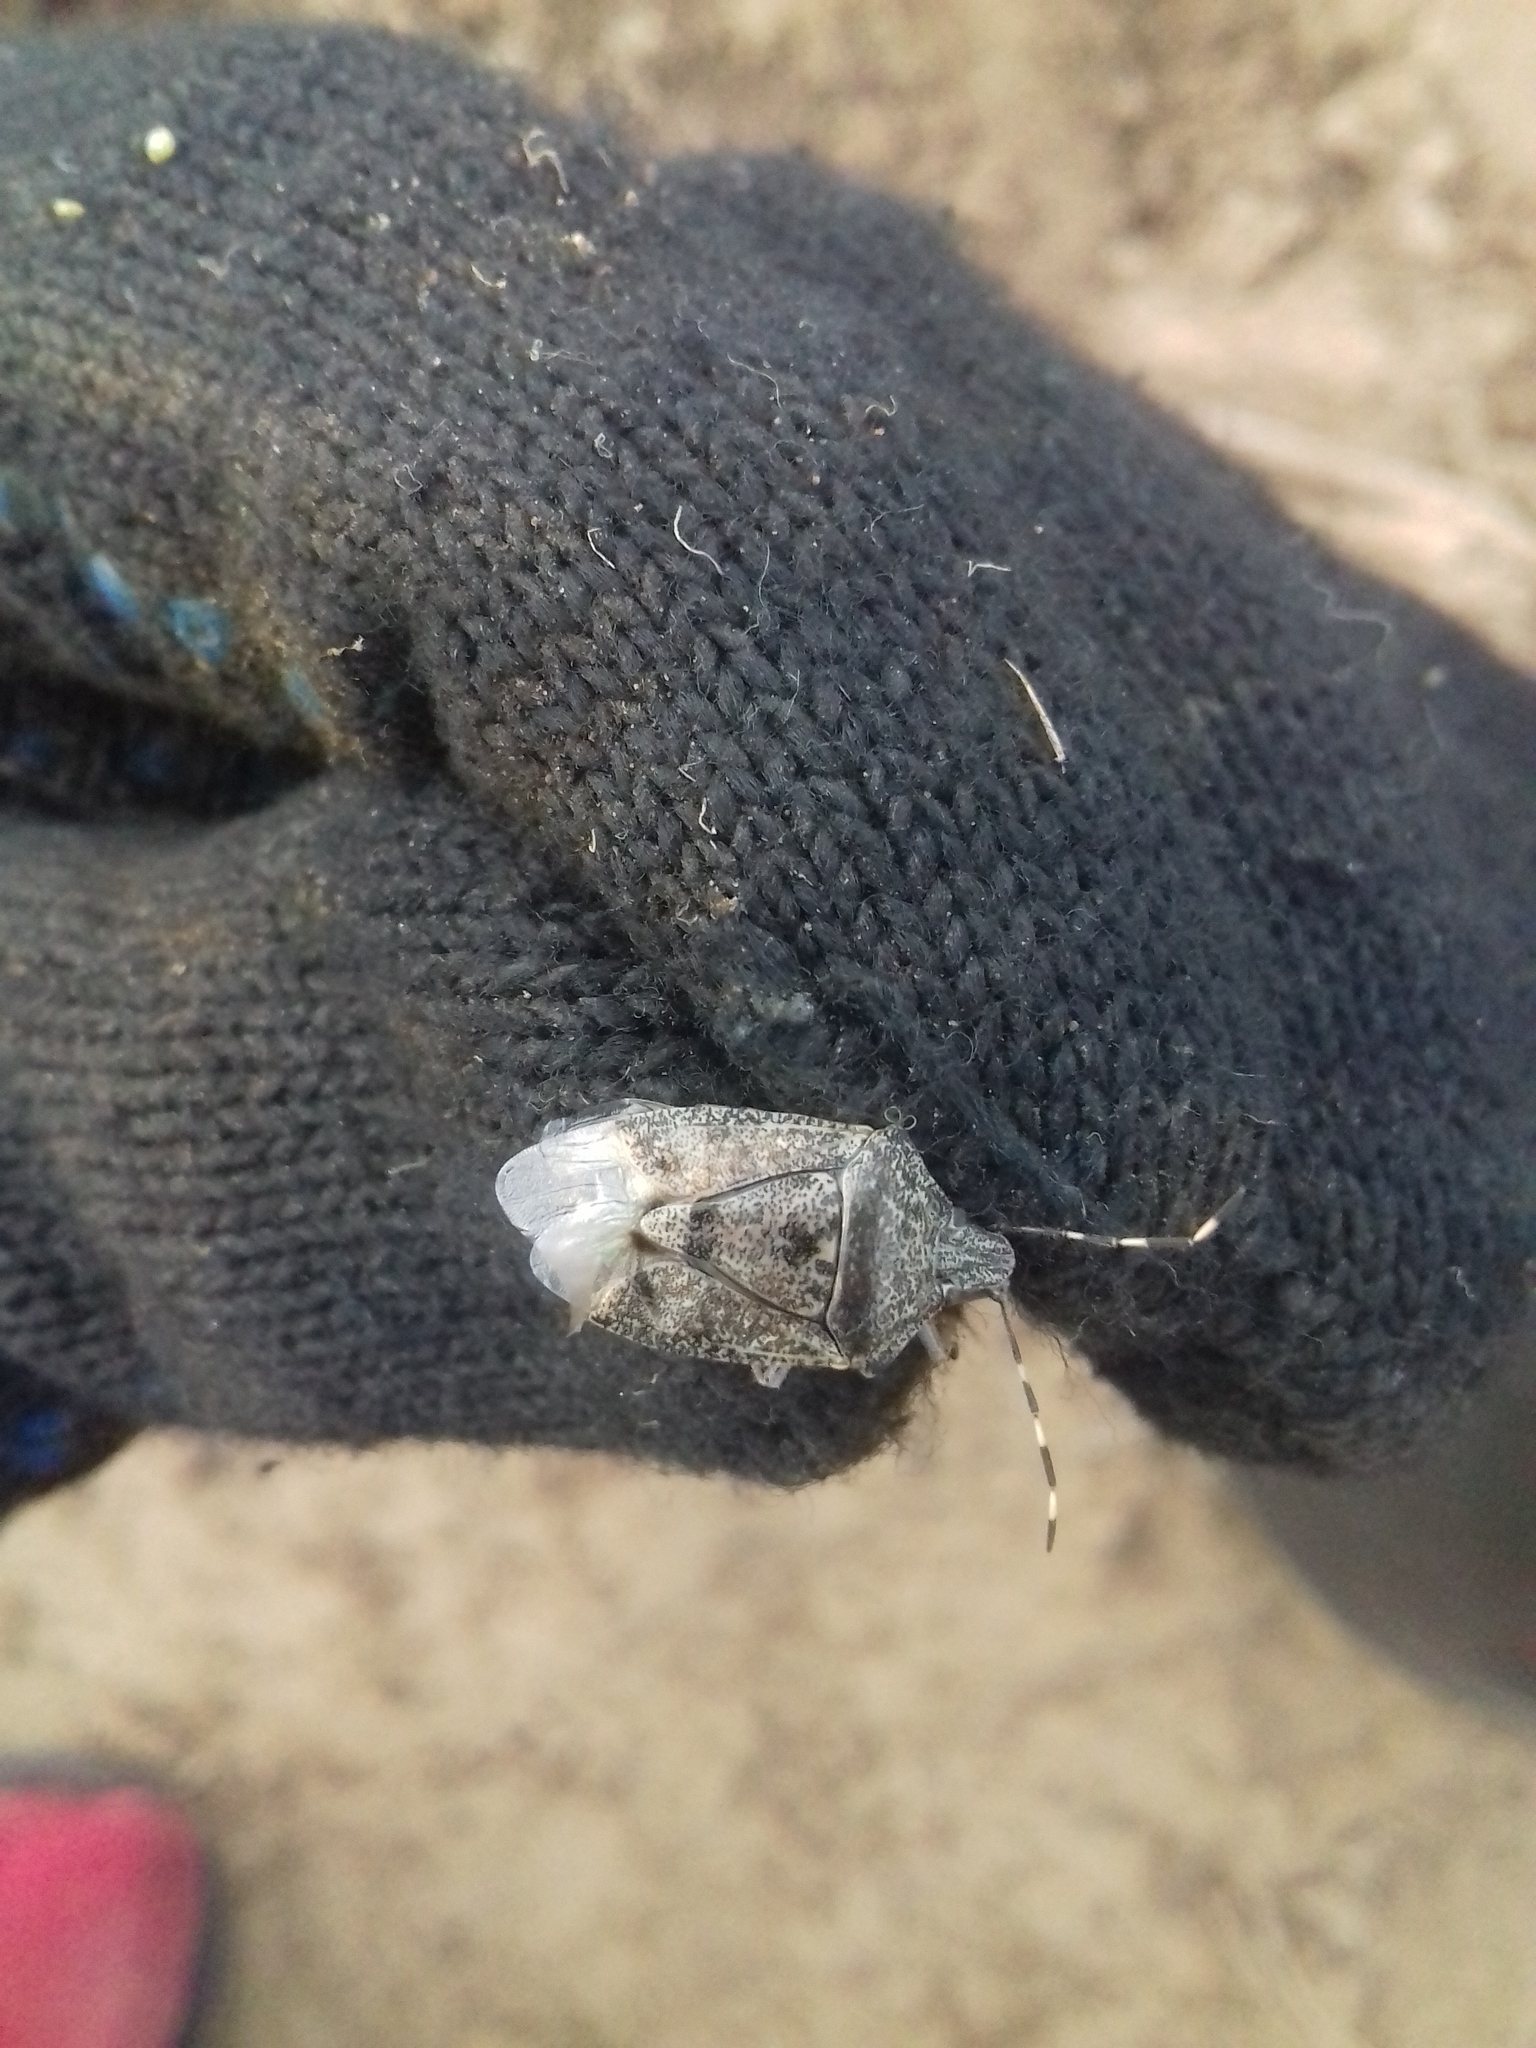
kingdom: Animalia
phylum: Arthropoda
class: Insecta
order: Hemiptera
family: Pentatomidae
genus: Rhaphigaster
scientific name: Rhaphigaster nebulosa
